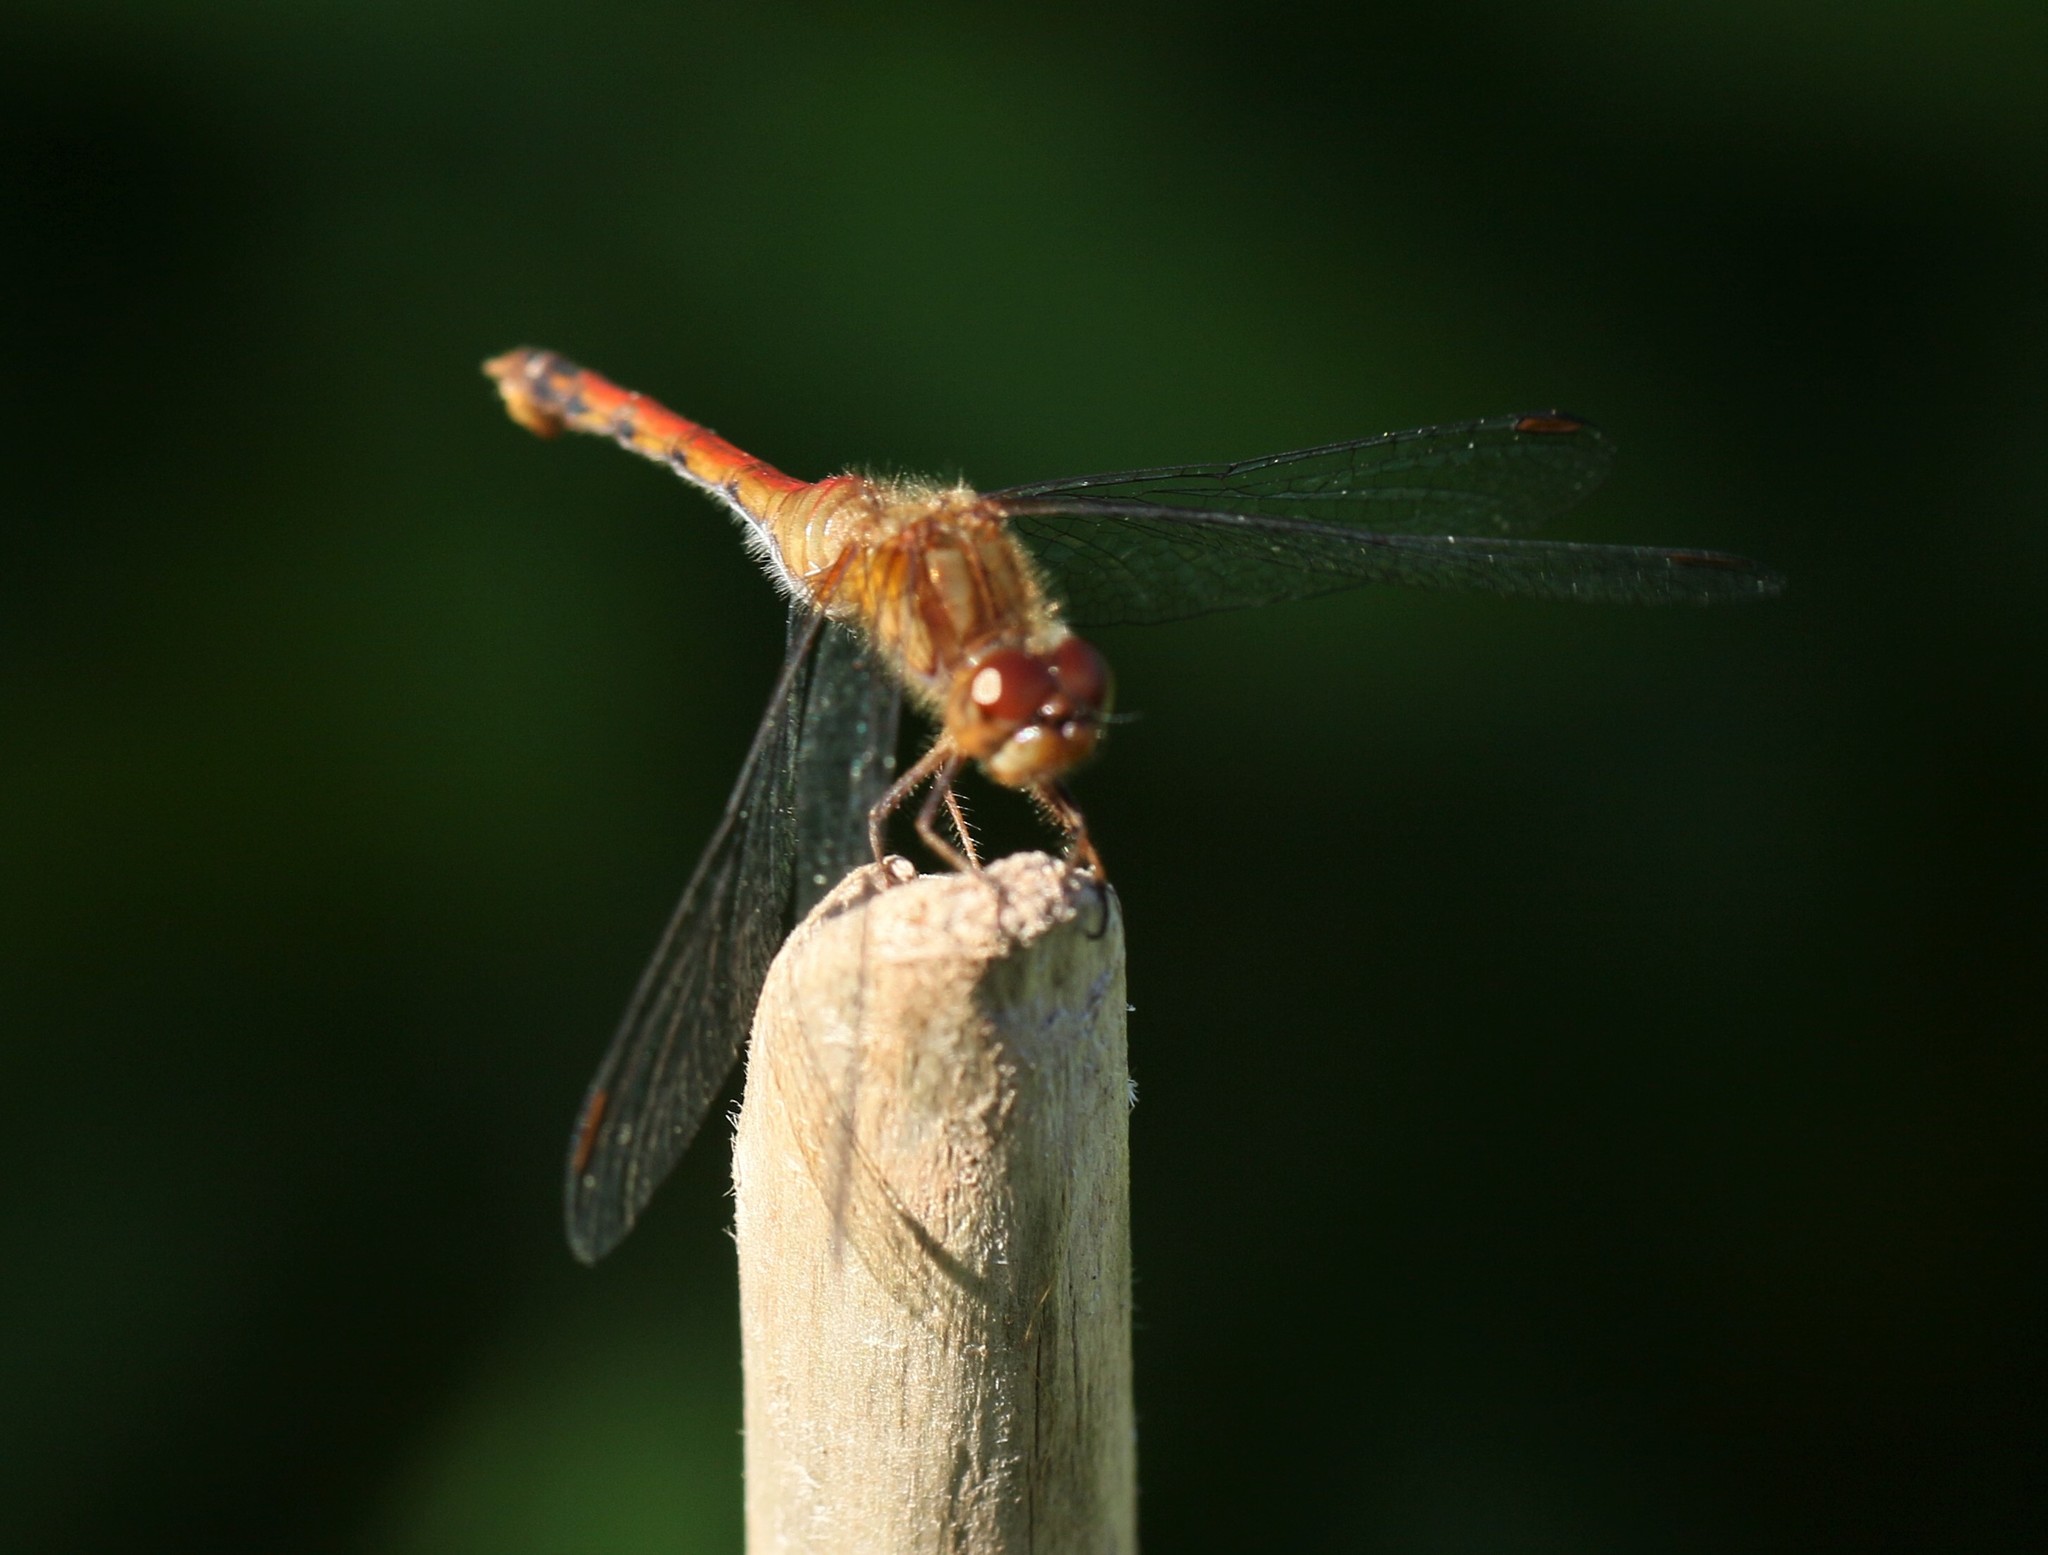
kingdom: Animalia
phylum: Arthropoda
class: Insecta
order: Odonata
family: Libellulidae
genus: Sympetrum
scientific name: Sympetrum vicinum
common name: Autumn meadowhawk
